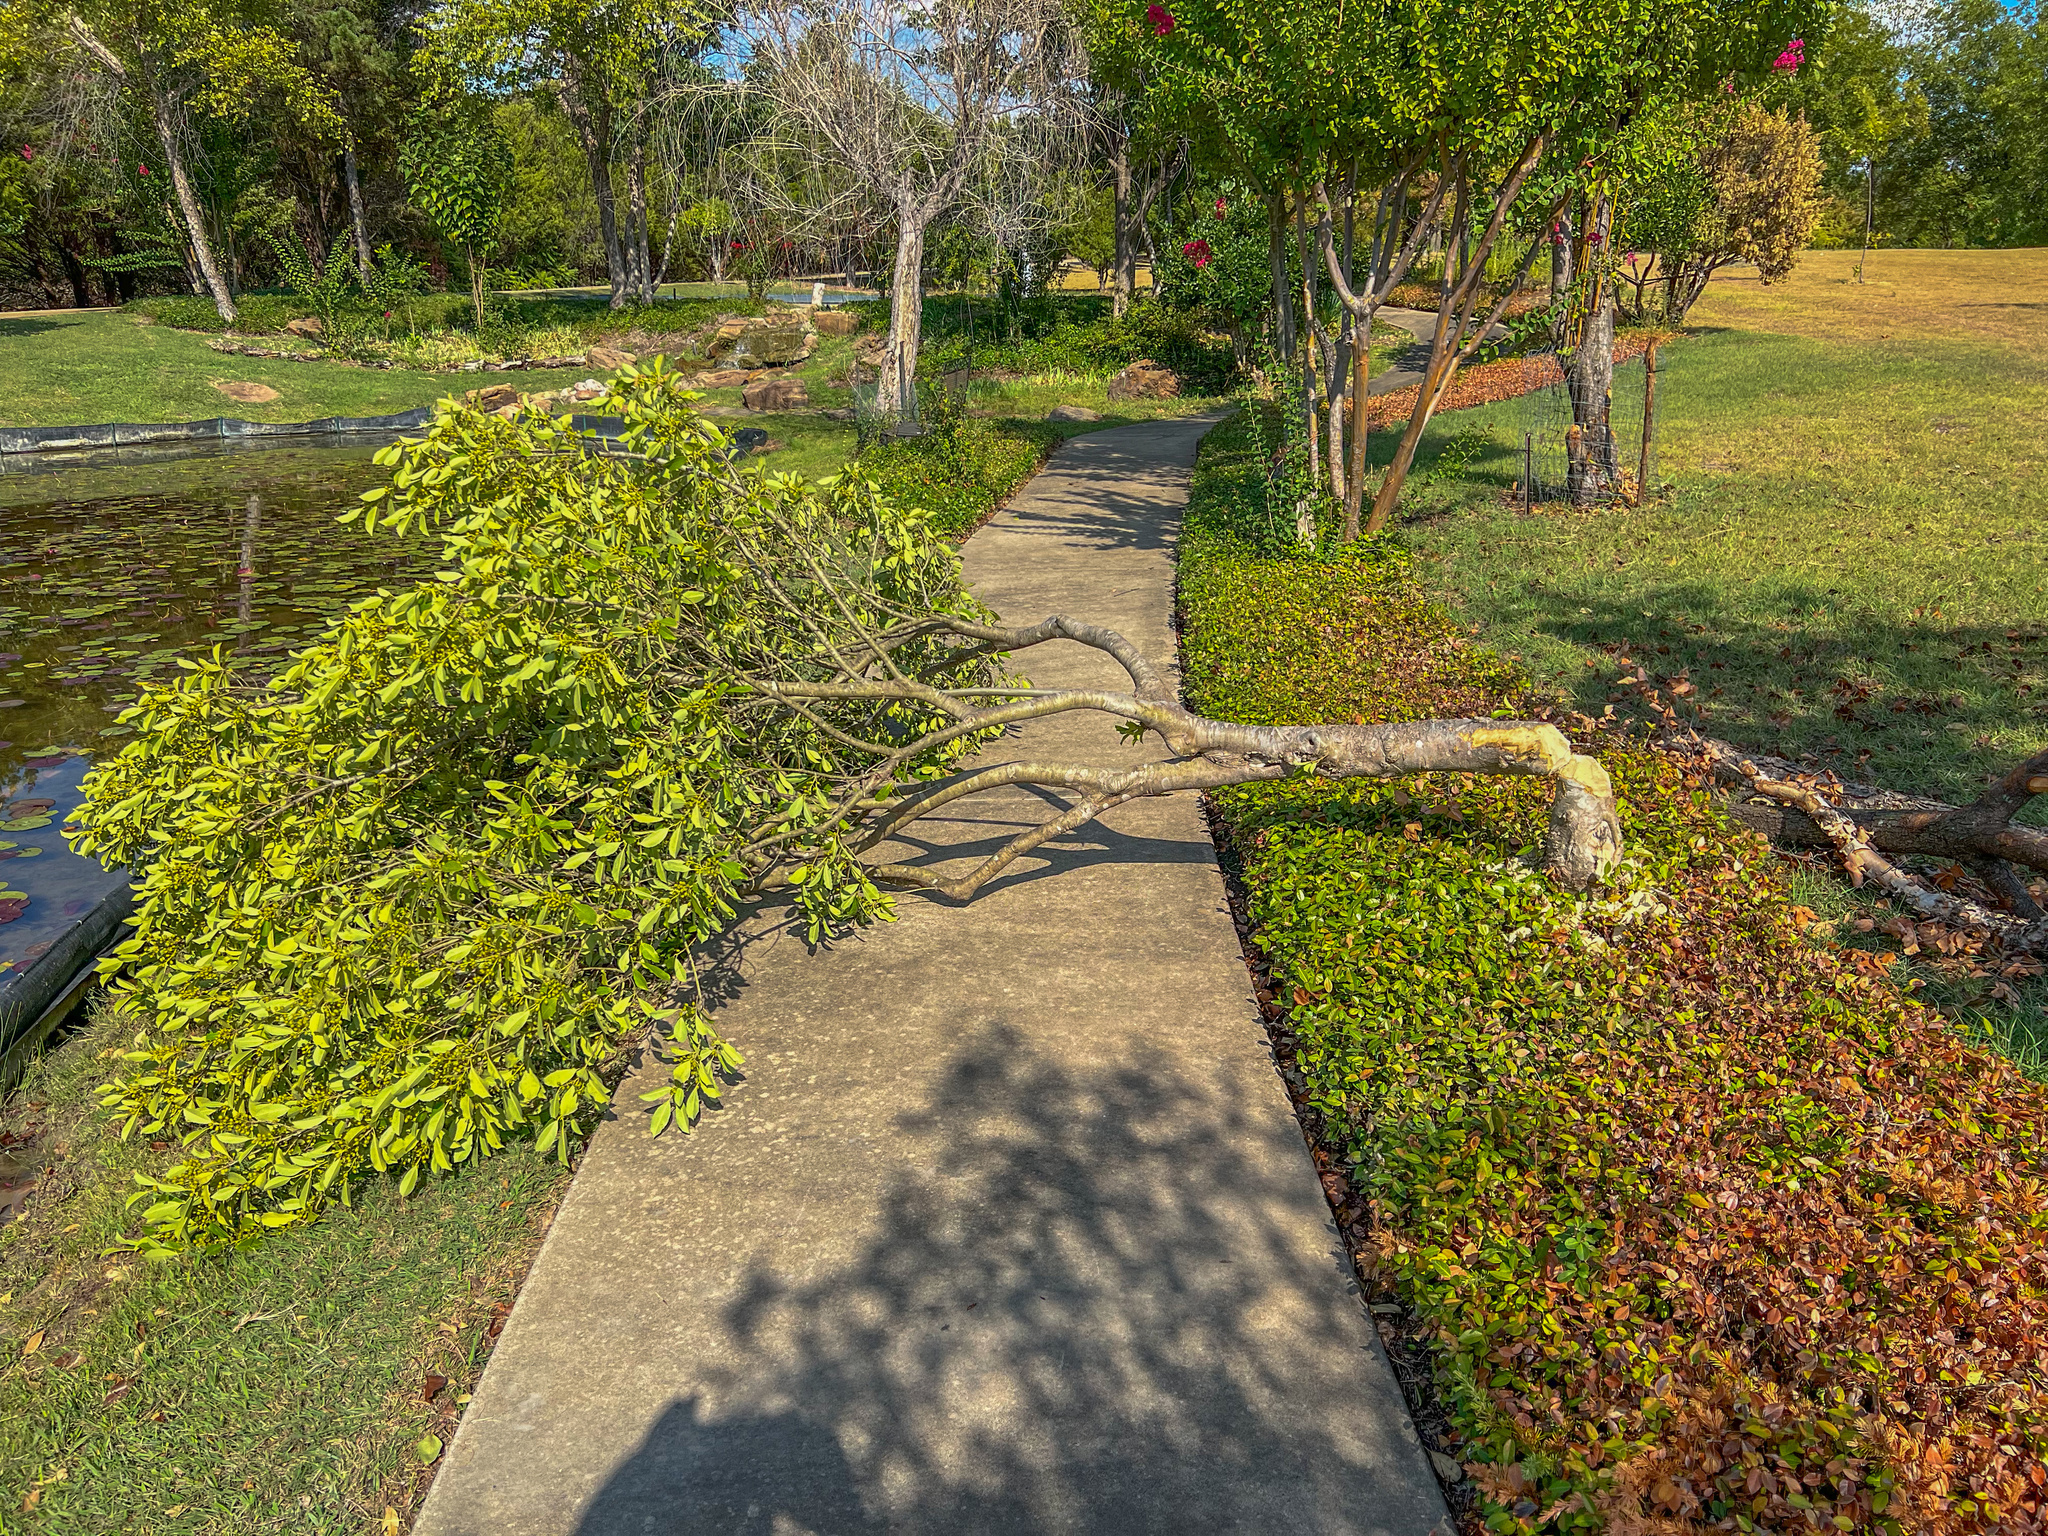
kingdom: Animalia
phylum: Chordata
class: Mammalia
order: Rodentia
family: Castoridae
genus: Castor
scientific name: Castor canadensis
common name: American beaver
